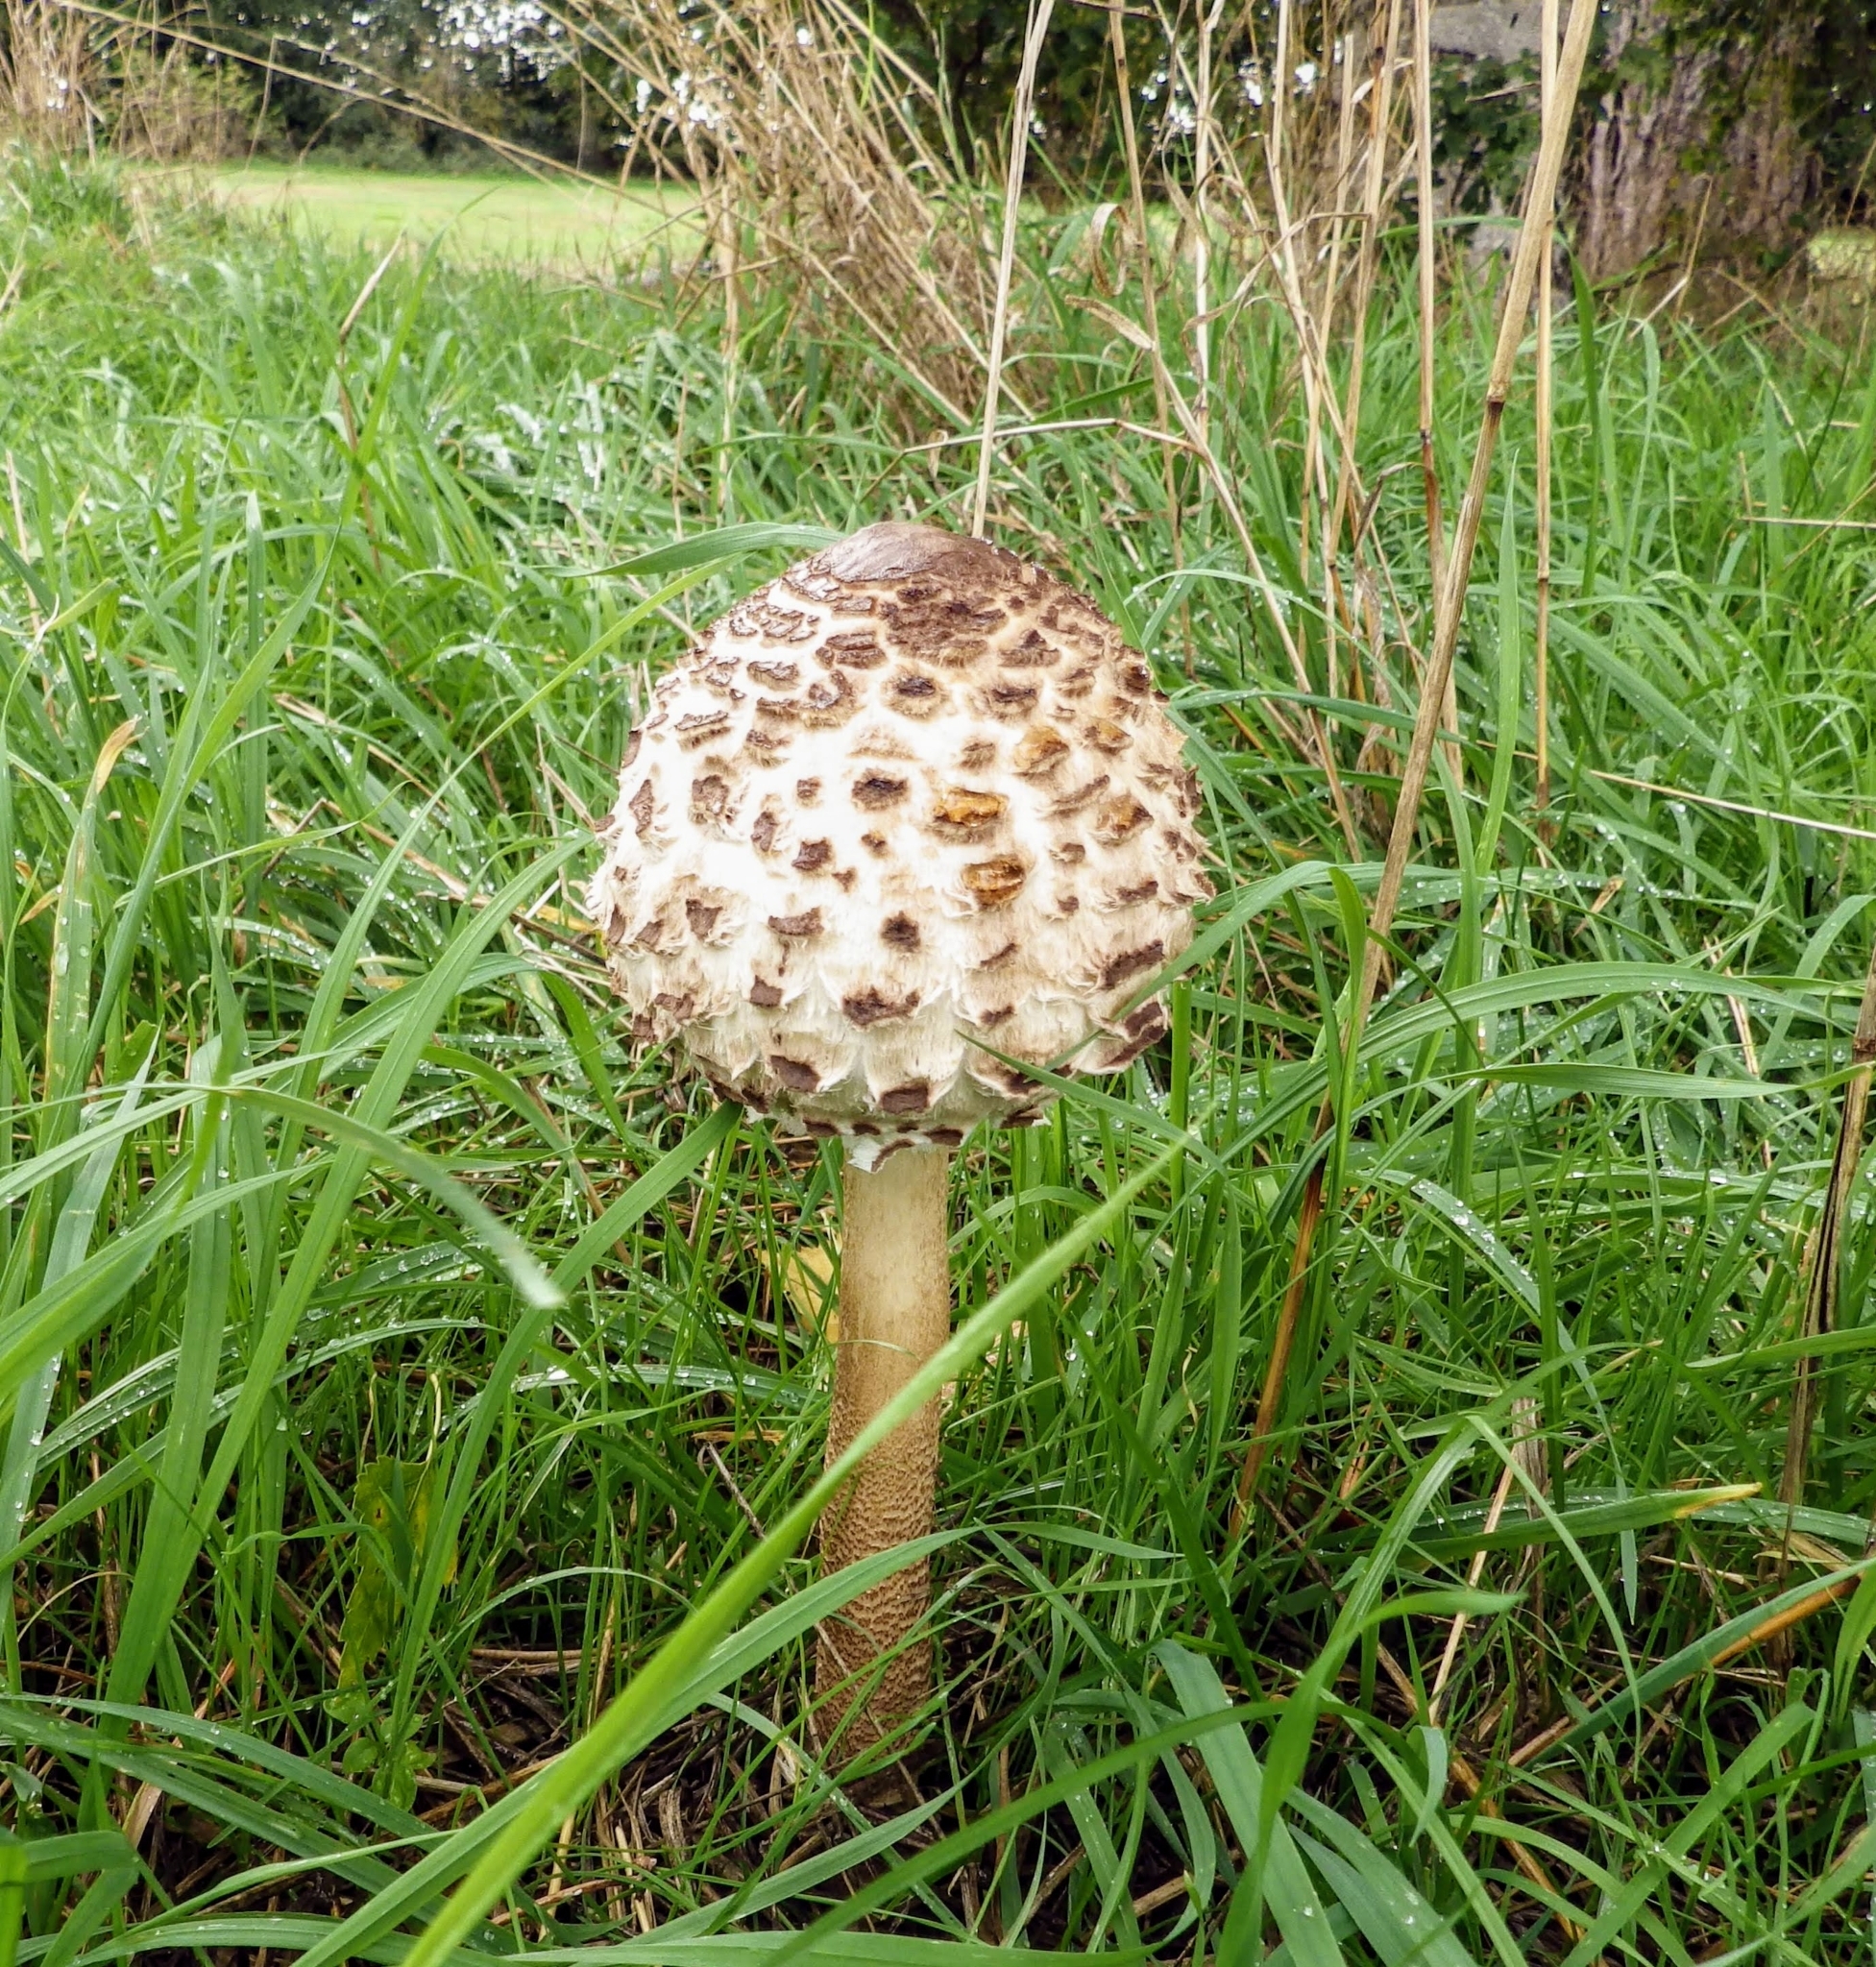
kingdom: Fungi
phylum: Basidiomycota
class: Agaricomycetes
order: Agaricales
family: Agaricaceae
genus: Macrolepiota
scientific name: Macrolepiota procera
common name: Parasol
